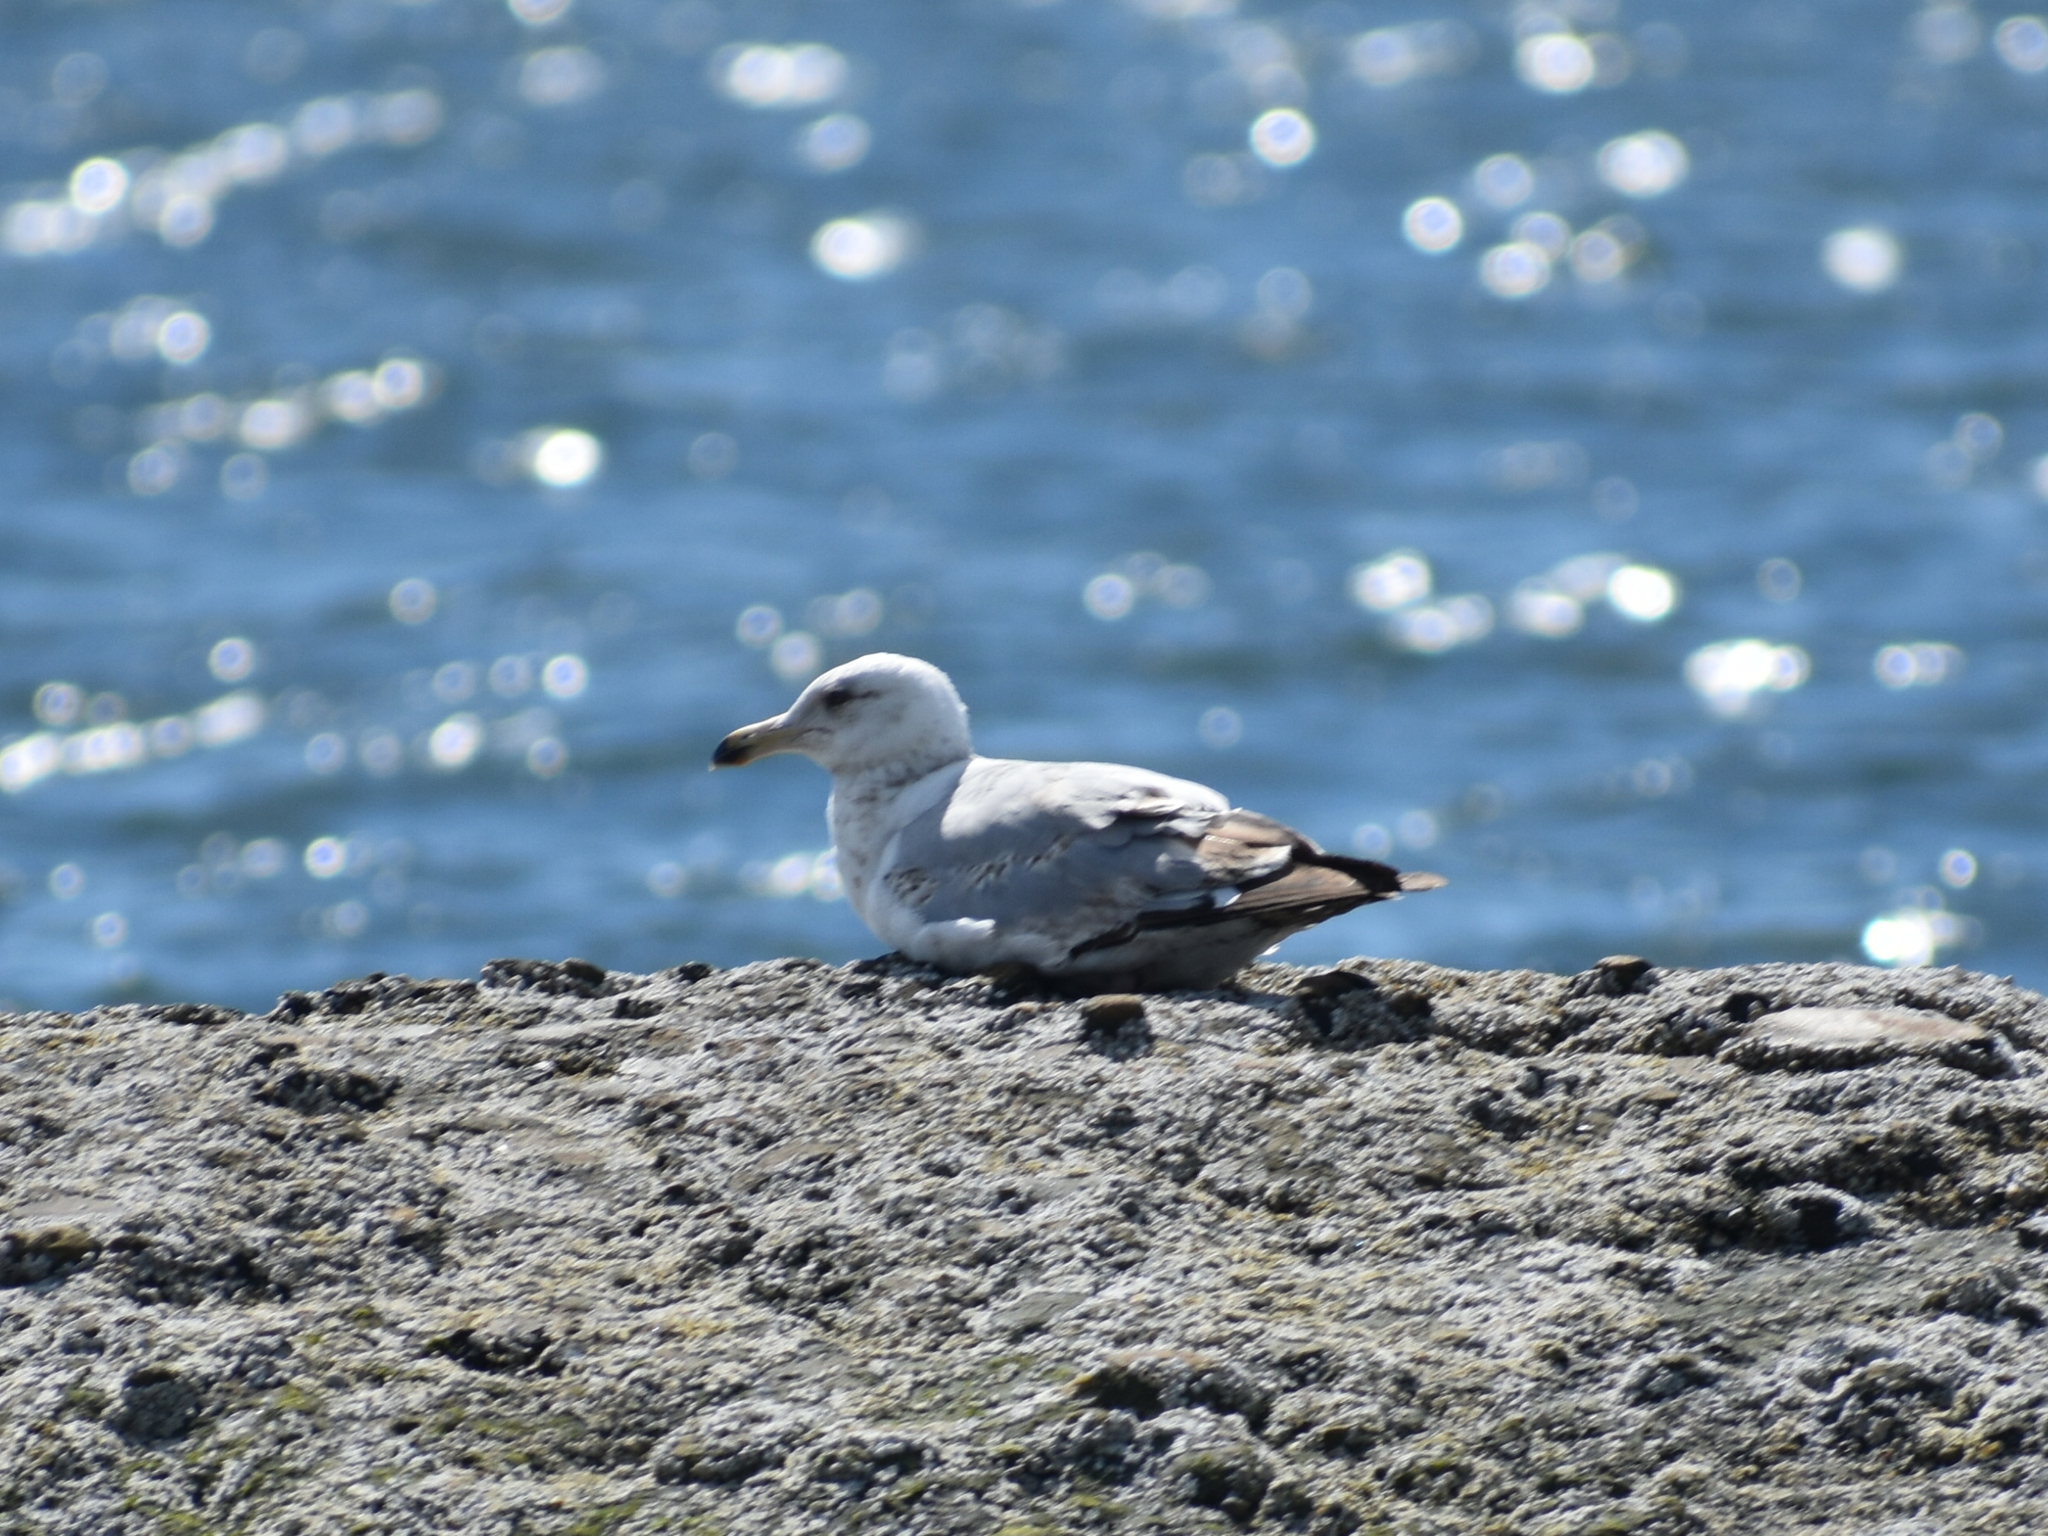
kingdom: Animalia
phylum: Chordata
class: Aves
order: Charadriiformes
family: Laridae
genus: Larus
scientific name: Larus delawarensis
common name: Ring-billed gull
